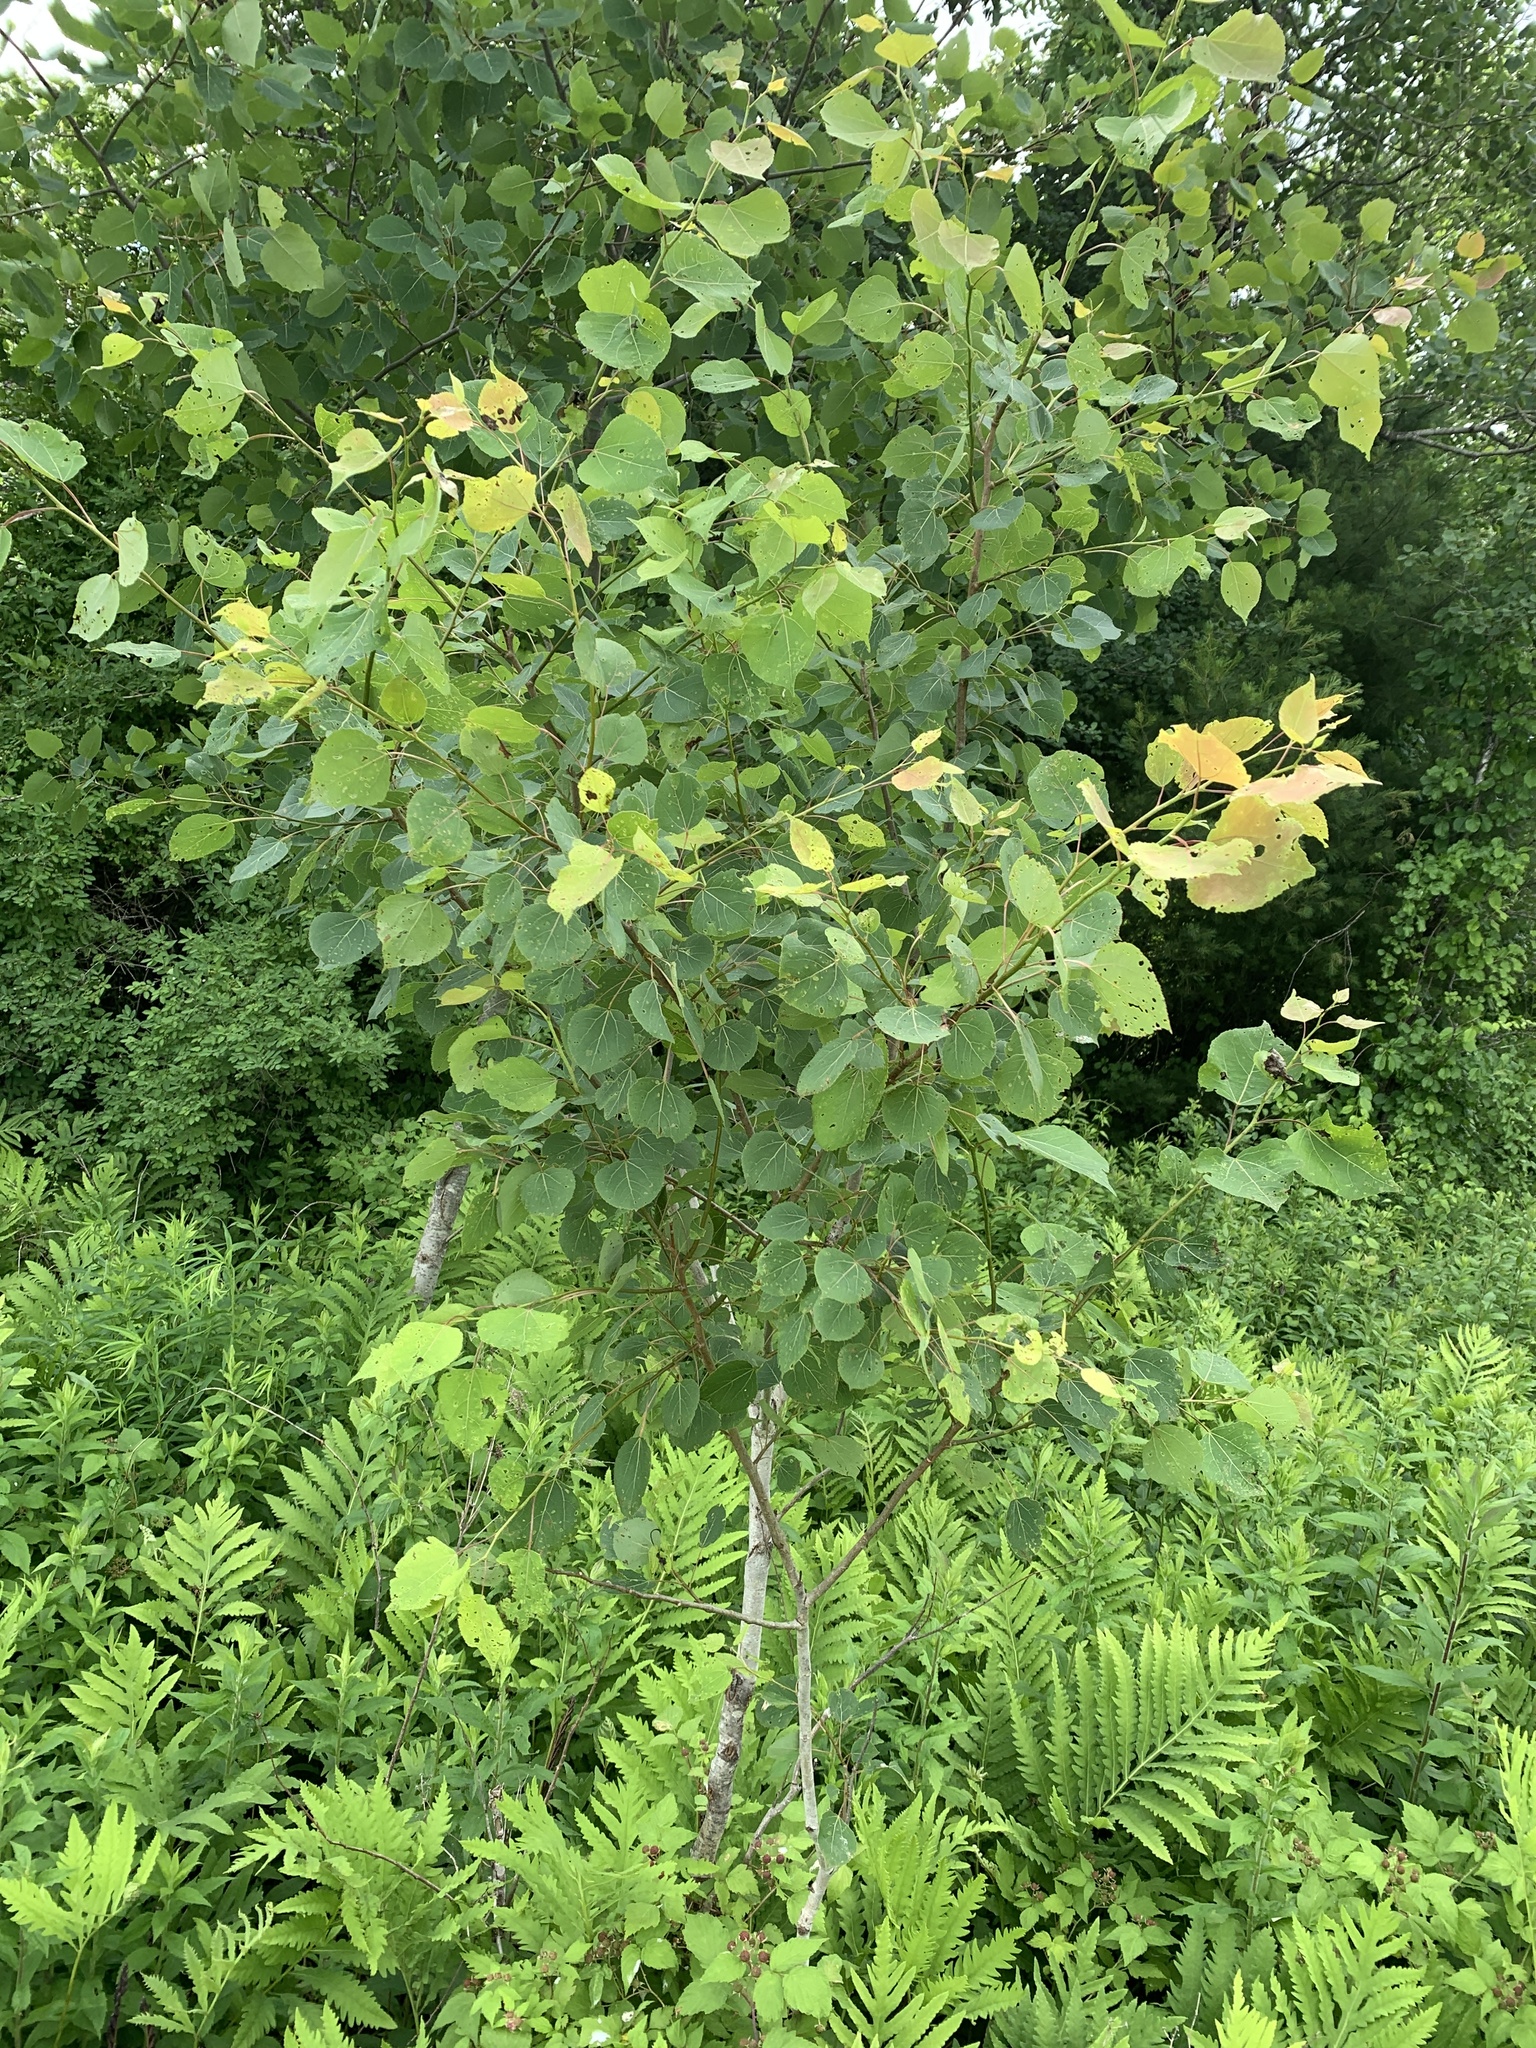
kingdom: Plantae
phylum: Tracheophyta
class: Magnoliopsida
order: Malpighiales
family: Salicaceae
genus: Populus
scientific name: Populus tremuloides
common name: Quaking aspen
